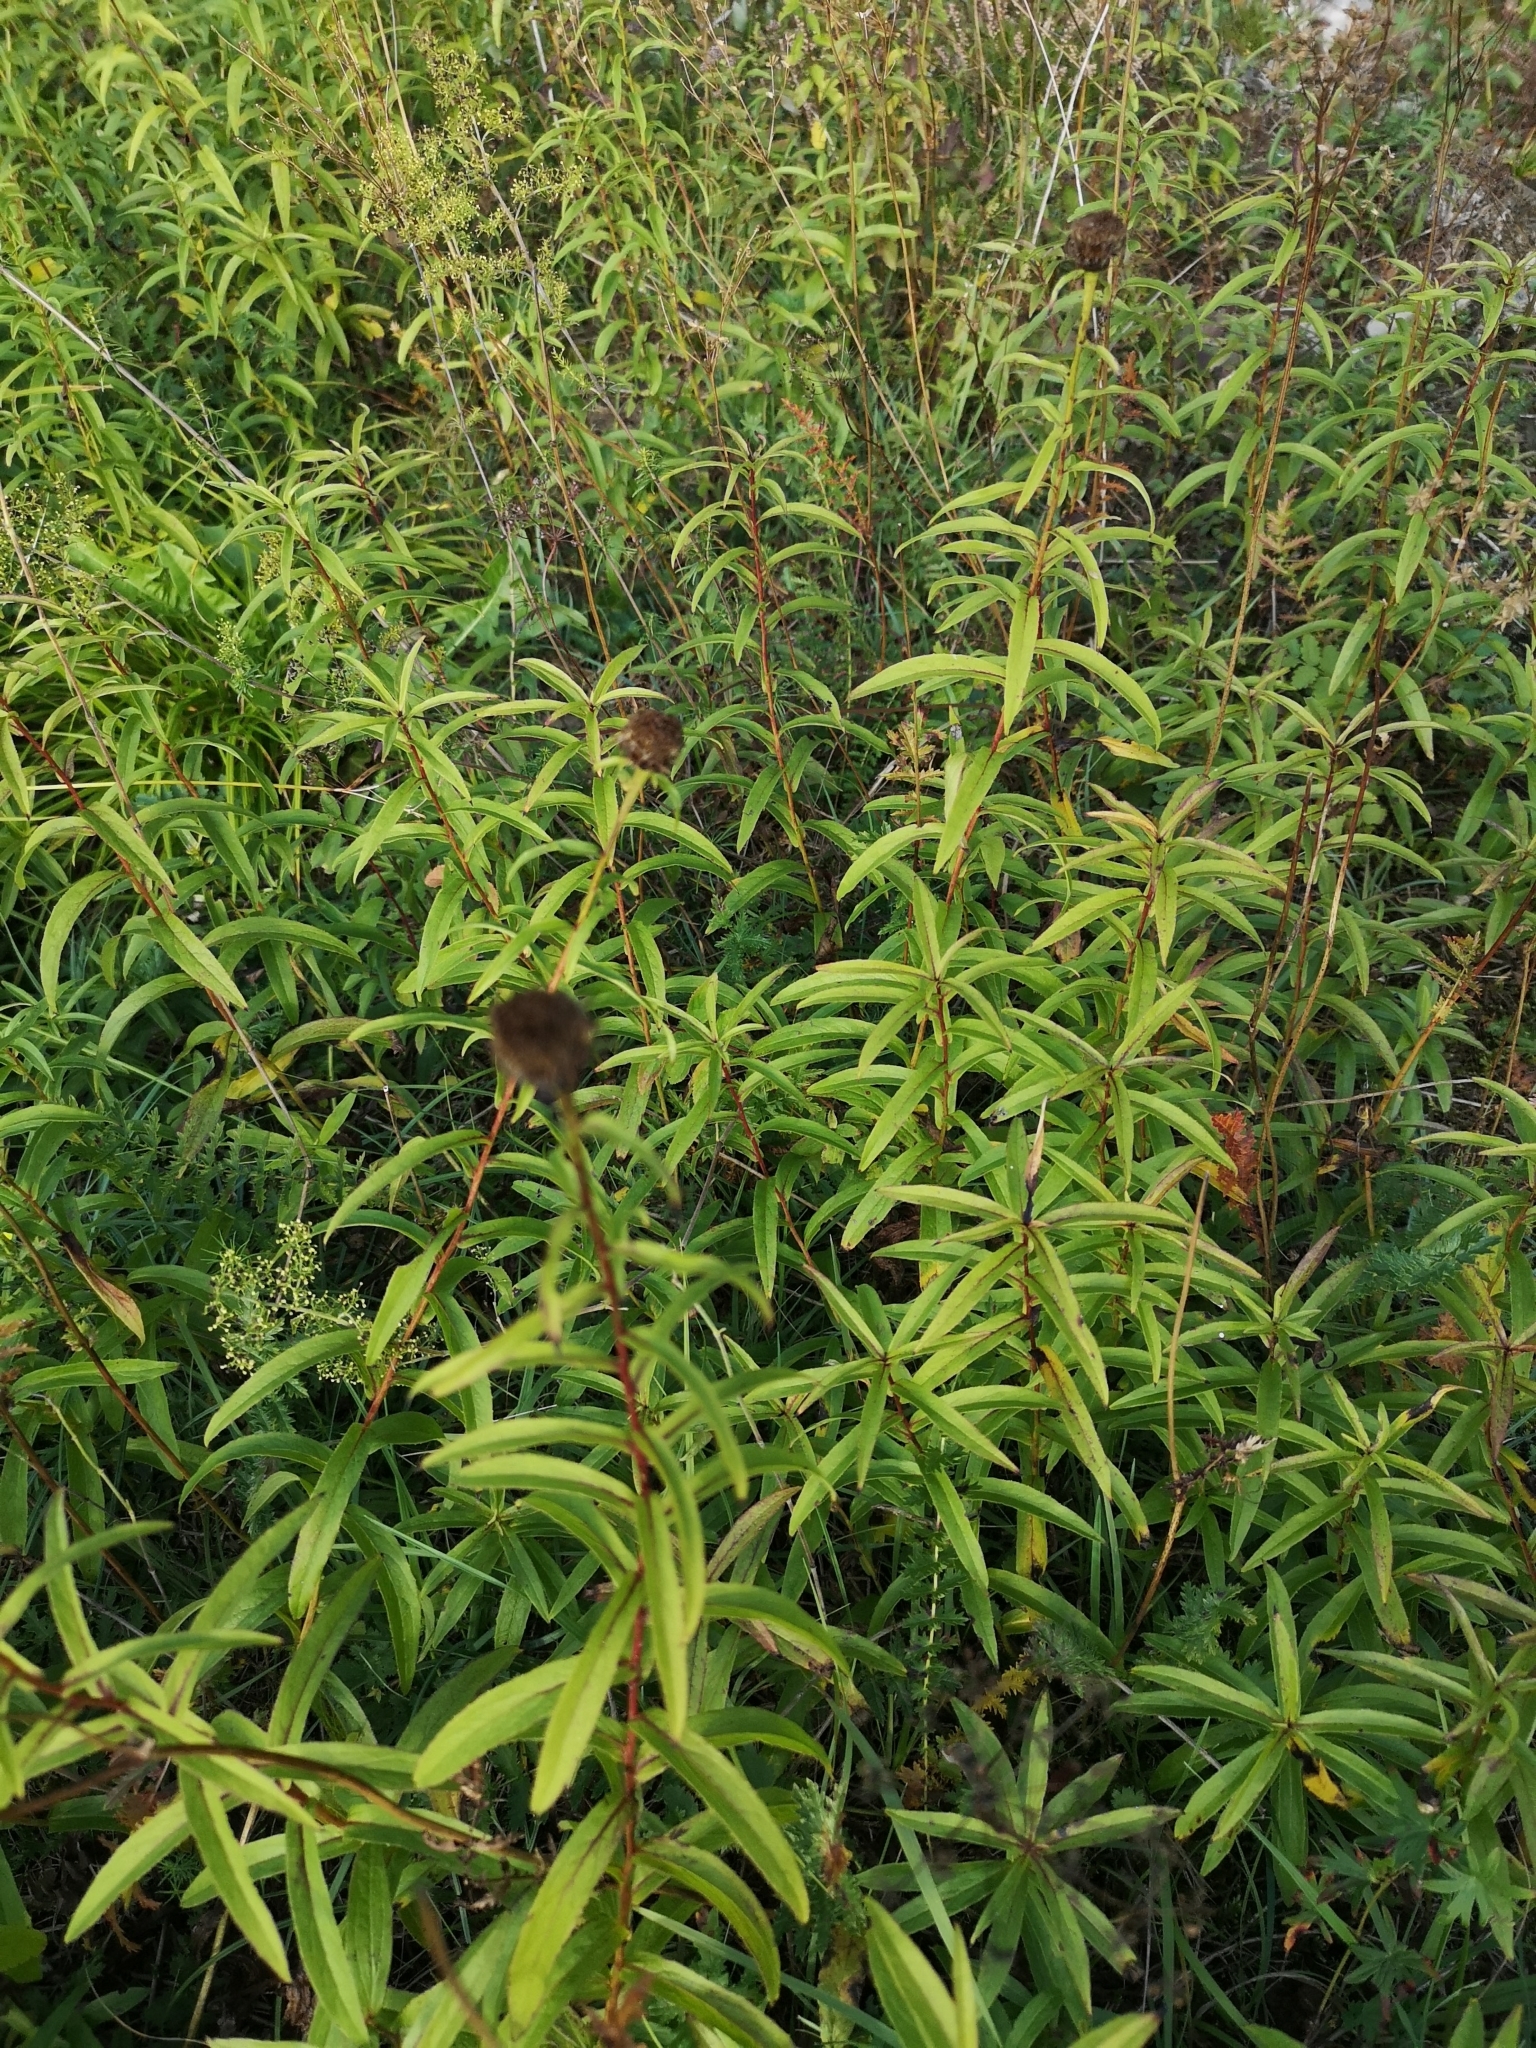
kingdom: Plantae
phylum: Tracheophyta
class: Magnoliopsida
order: Asterales
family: Asteraceae
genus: Pentanema
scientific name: Pentanema salicinum
